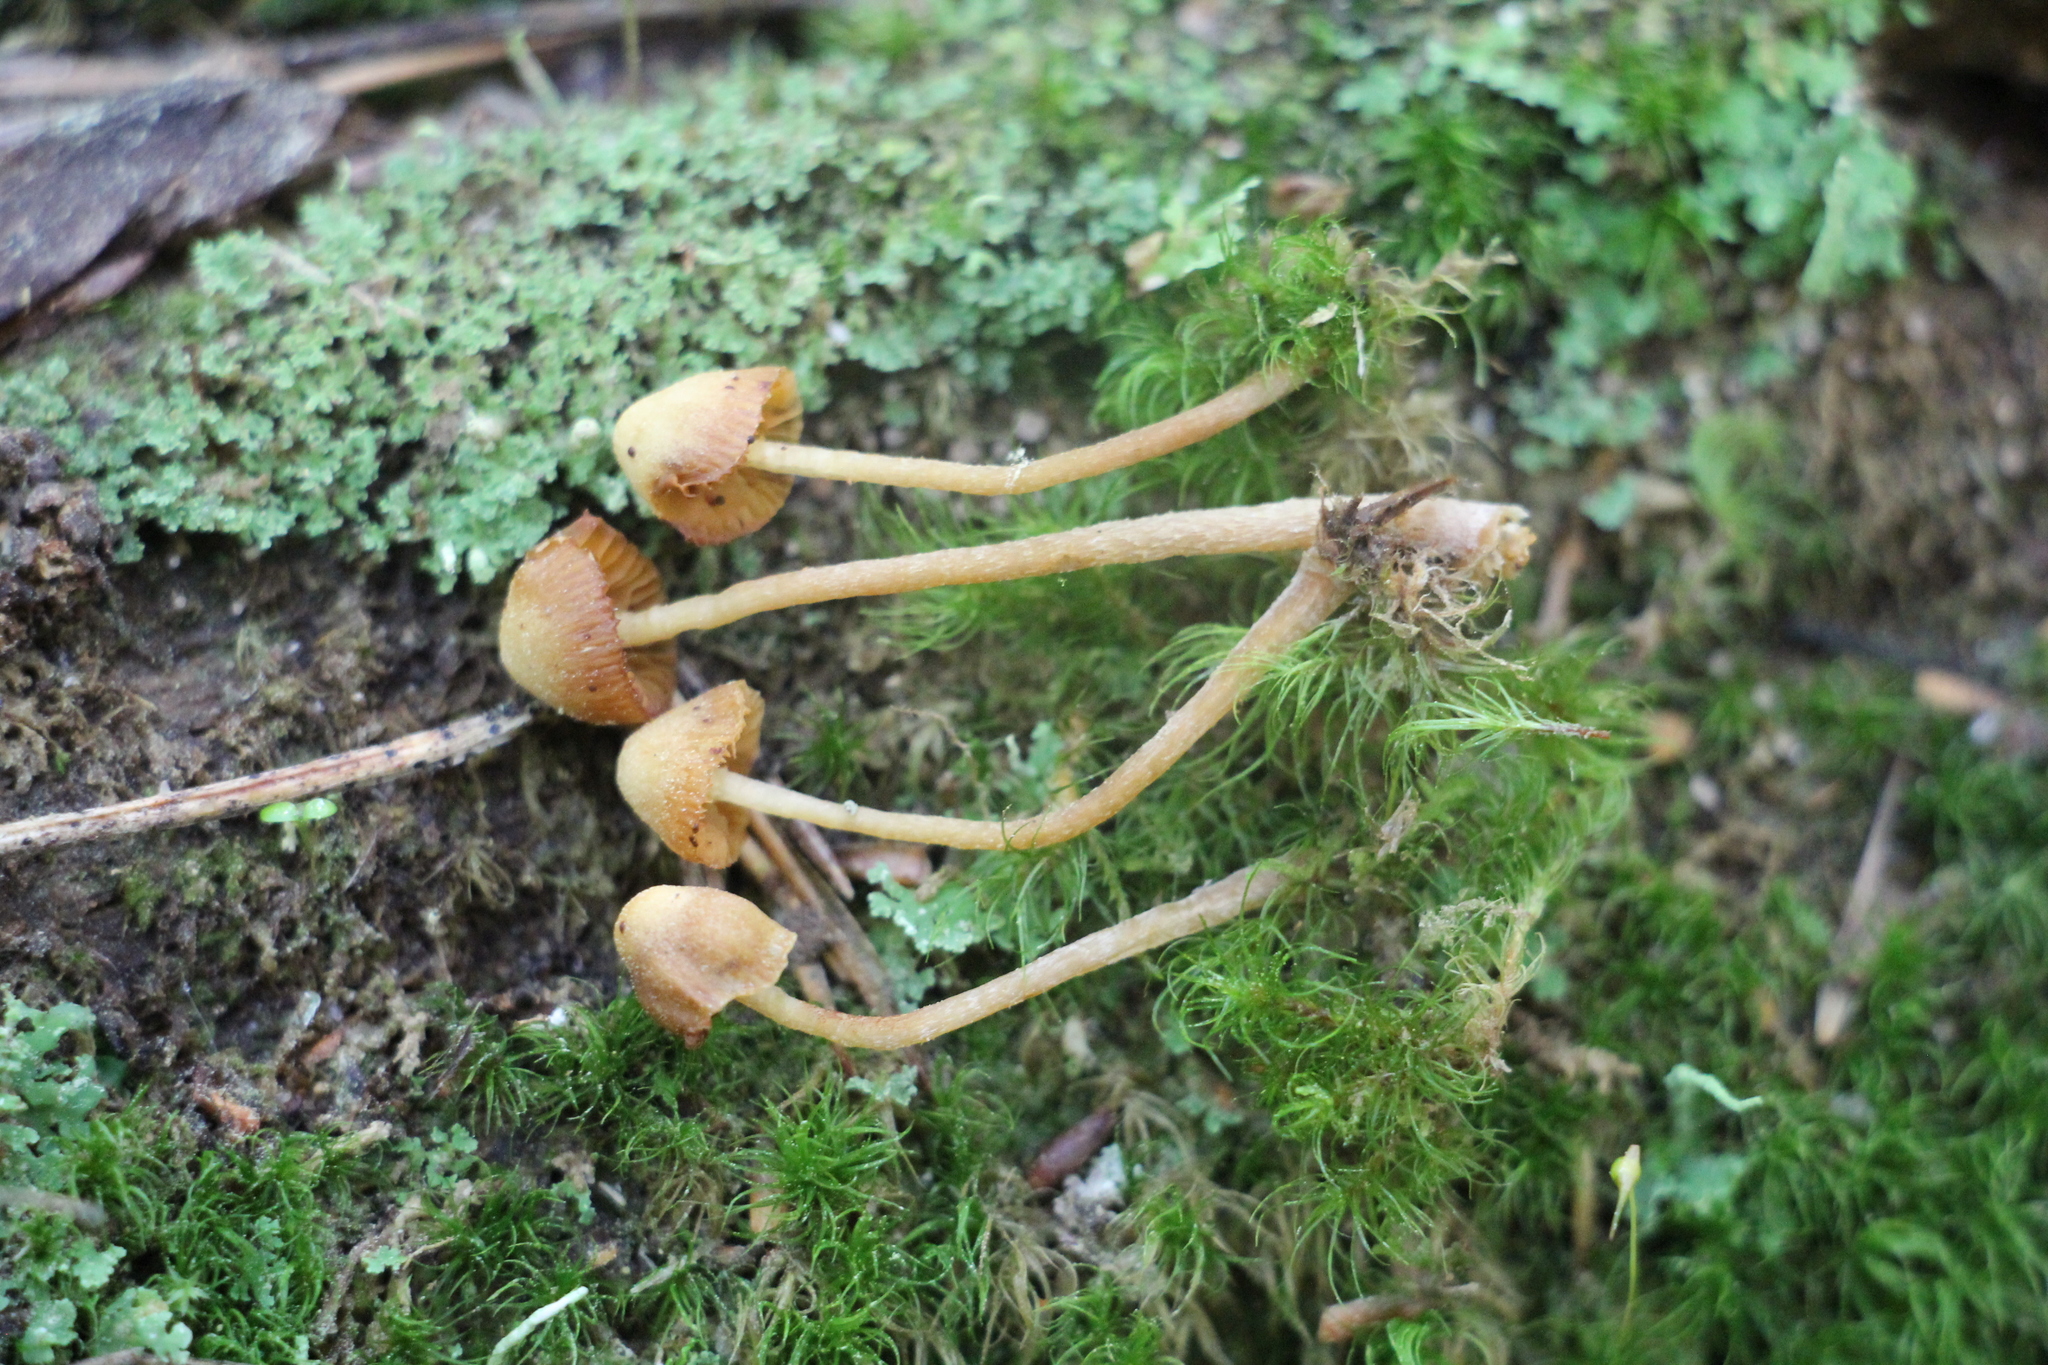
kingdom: Fungi
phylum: Basidiomycota
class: Agaricomycetes
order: Agaricales
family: Hymenogastraceae
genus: Galerina
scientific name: Galerina hypnorum
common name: Moss bell
